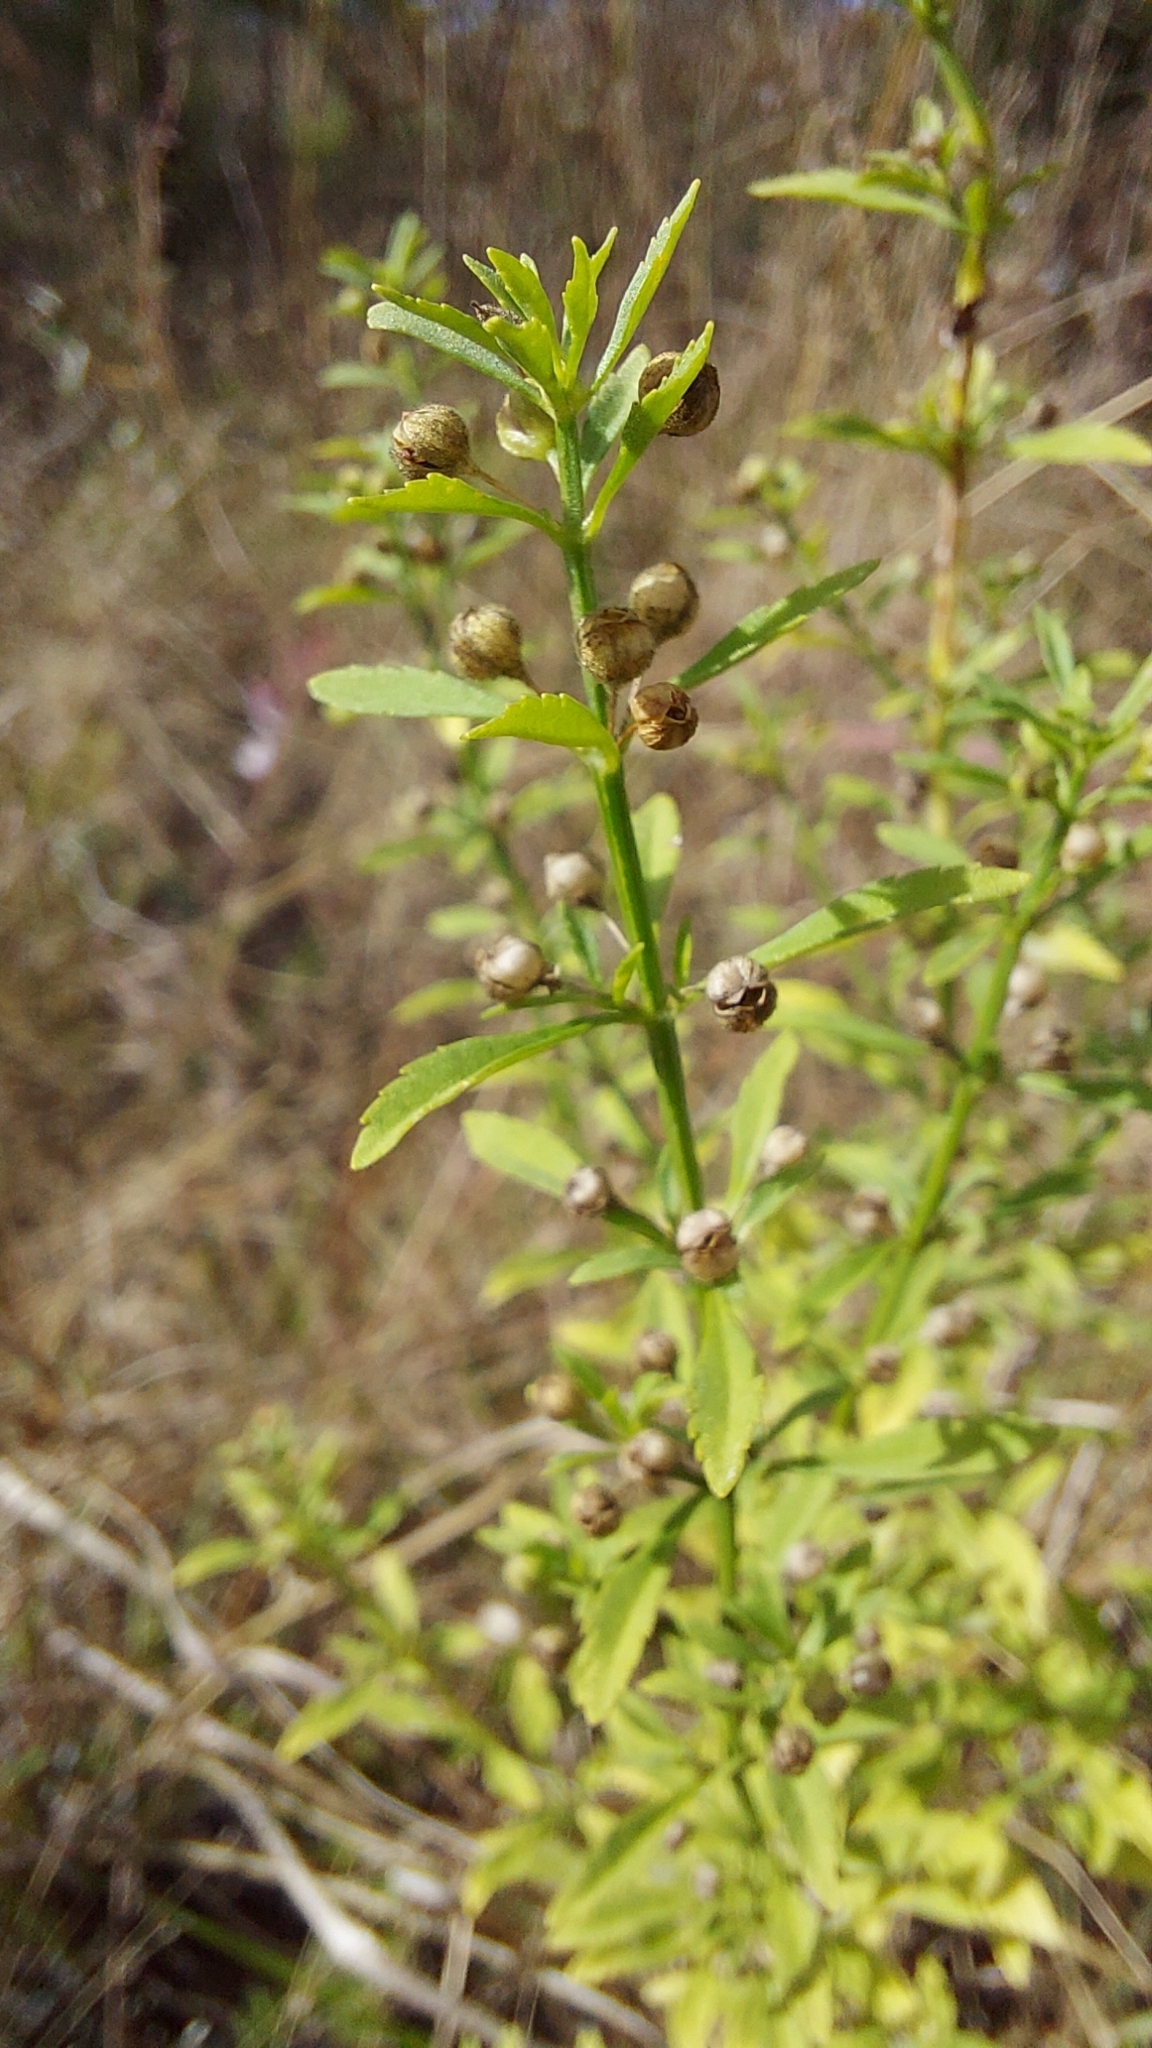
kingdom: Plantae
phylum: Tracheophyta
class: Magnoliopsida
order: Lamiales
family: Plantaginaceae
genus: Scoparia
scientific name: Scoparia dulcis
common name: Scoparia-weed
